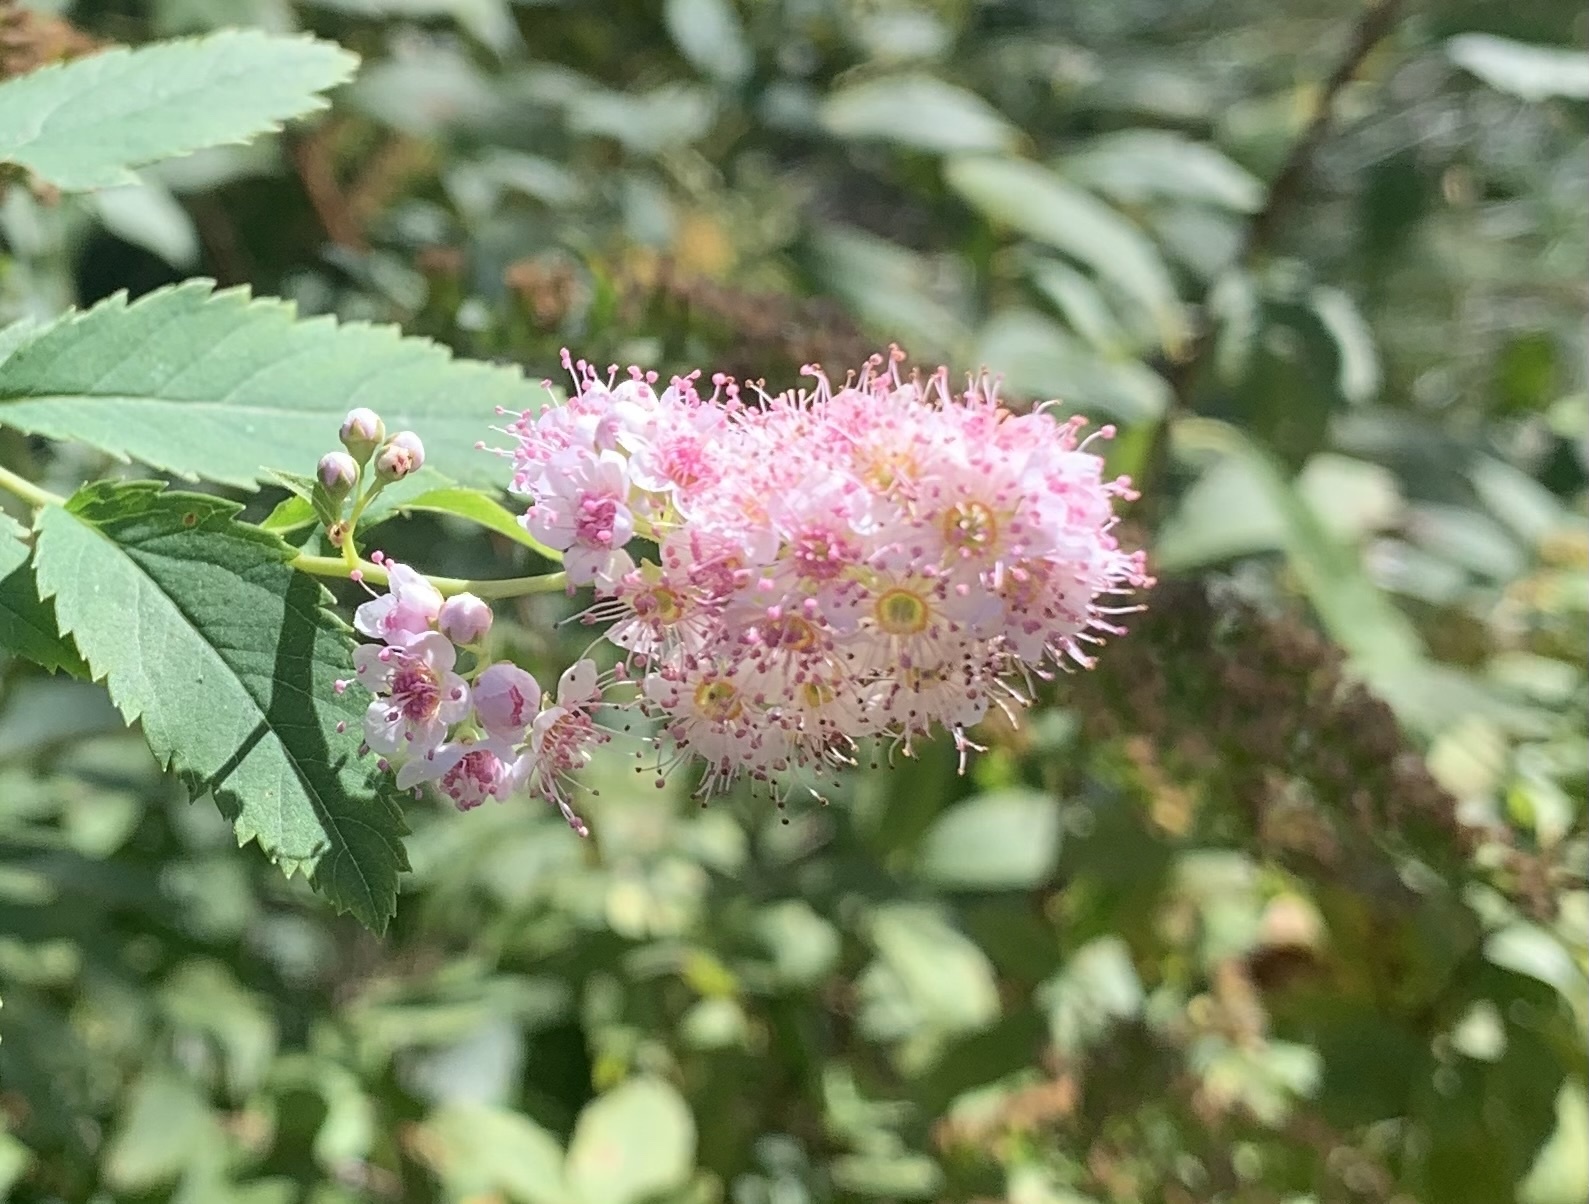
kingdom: Plantae
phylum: Tracheophyta
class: Magnoliopsida
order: Rosales
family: Rosaceae
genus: Spiraea
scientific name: Spiraea alba
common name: Pale bridewort
